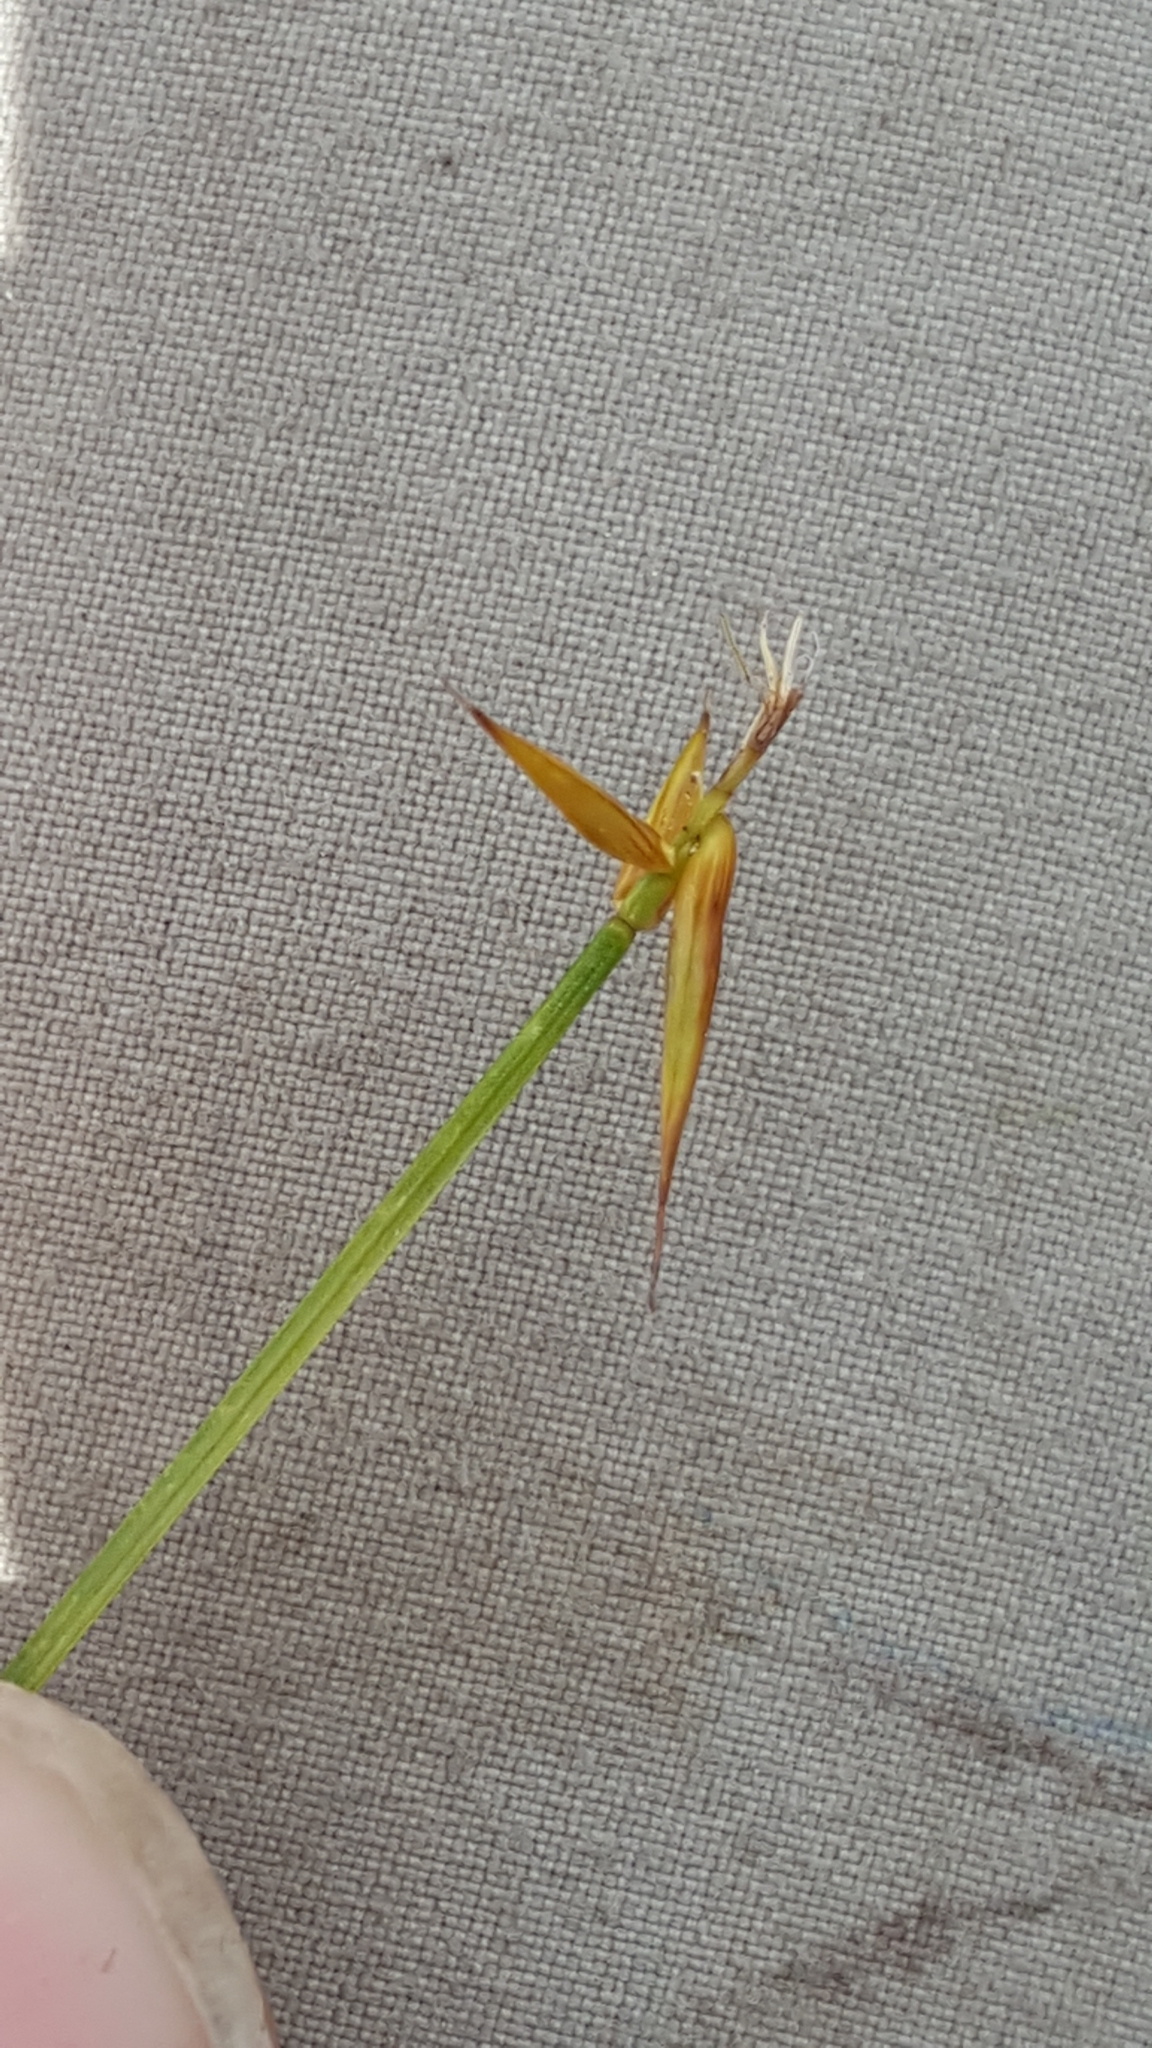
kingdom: Plantae
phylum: Tracheophyta
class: Liliopsida
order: Poales
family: Cyperaceae
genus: Carex
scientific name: Carex pauciflora
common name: Few-flowered sedge
